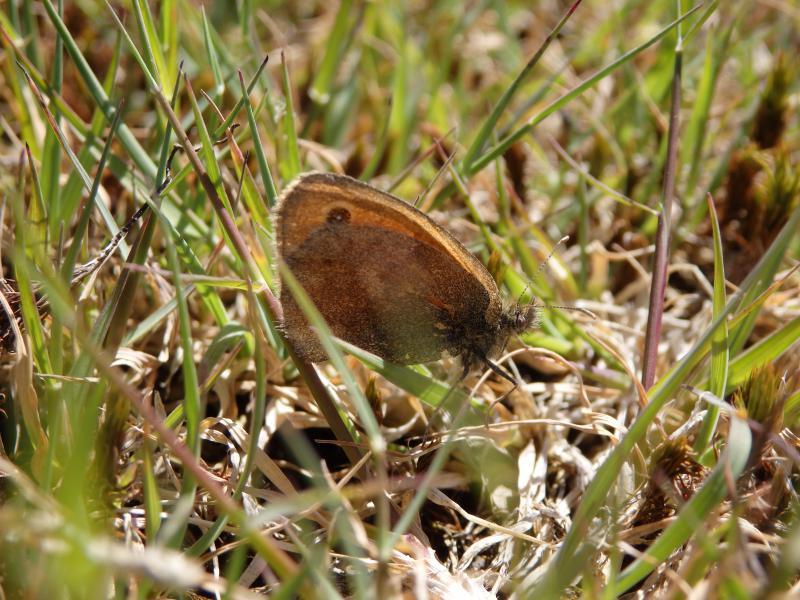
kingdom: Animalia
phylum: Arthropoda
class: Insecta
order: Lepidoptera
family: Nymphalidae
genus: Coenonympha
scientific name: Coenonympha pamphilus
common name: Small heath
